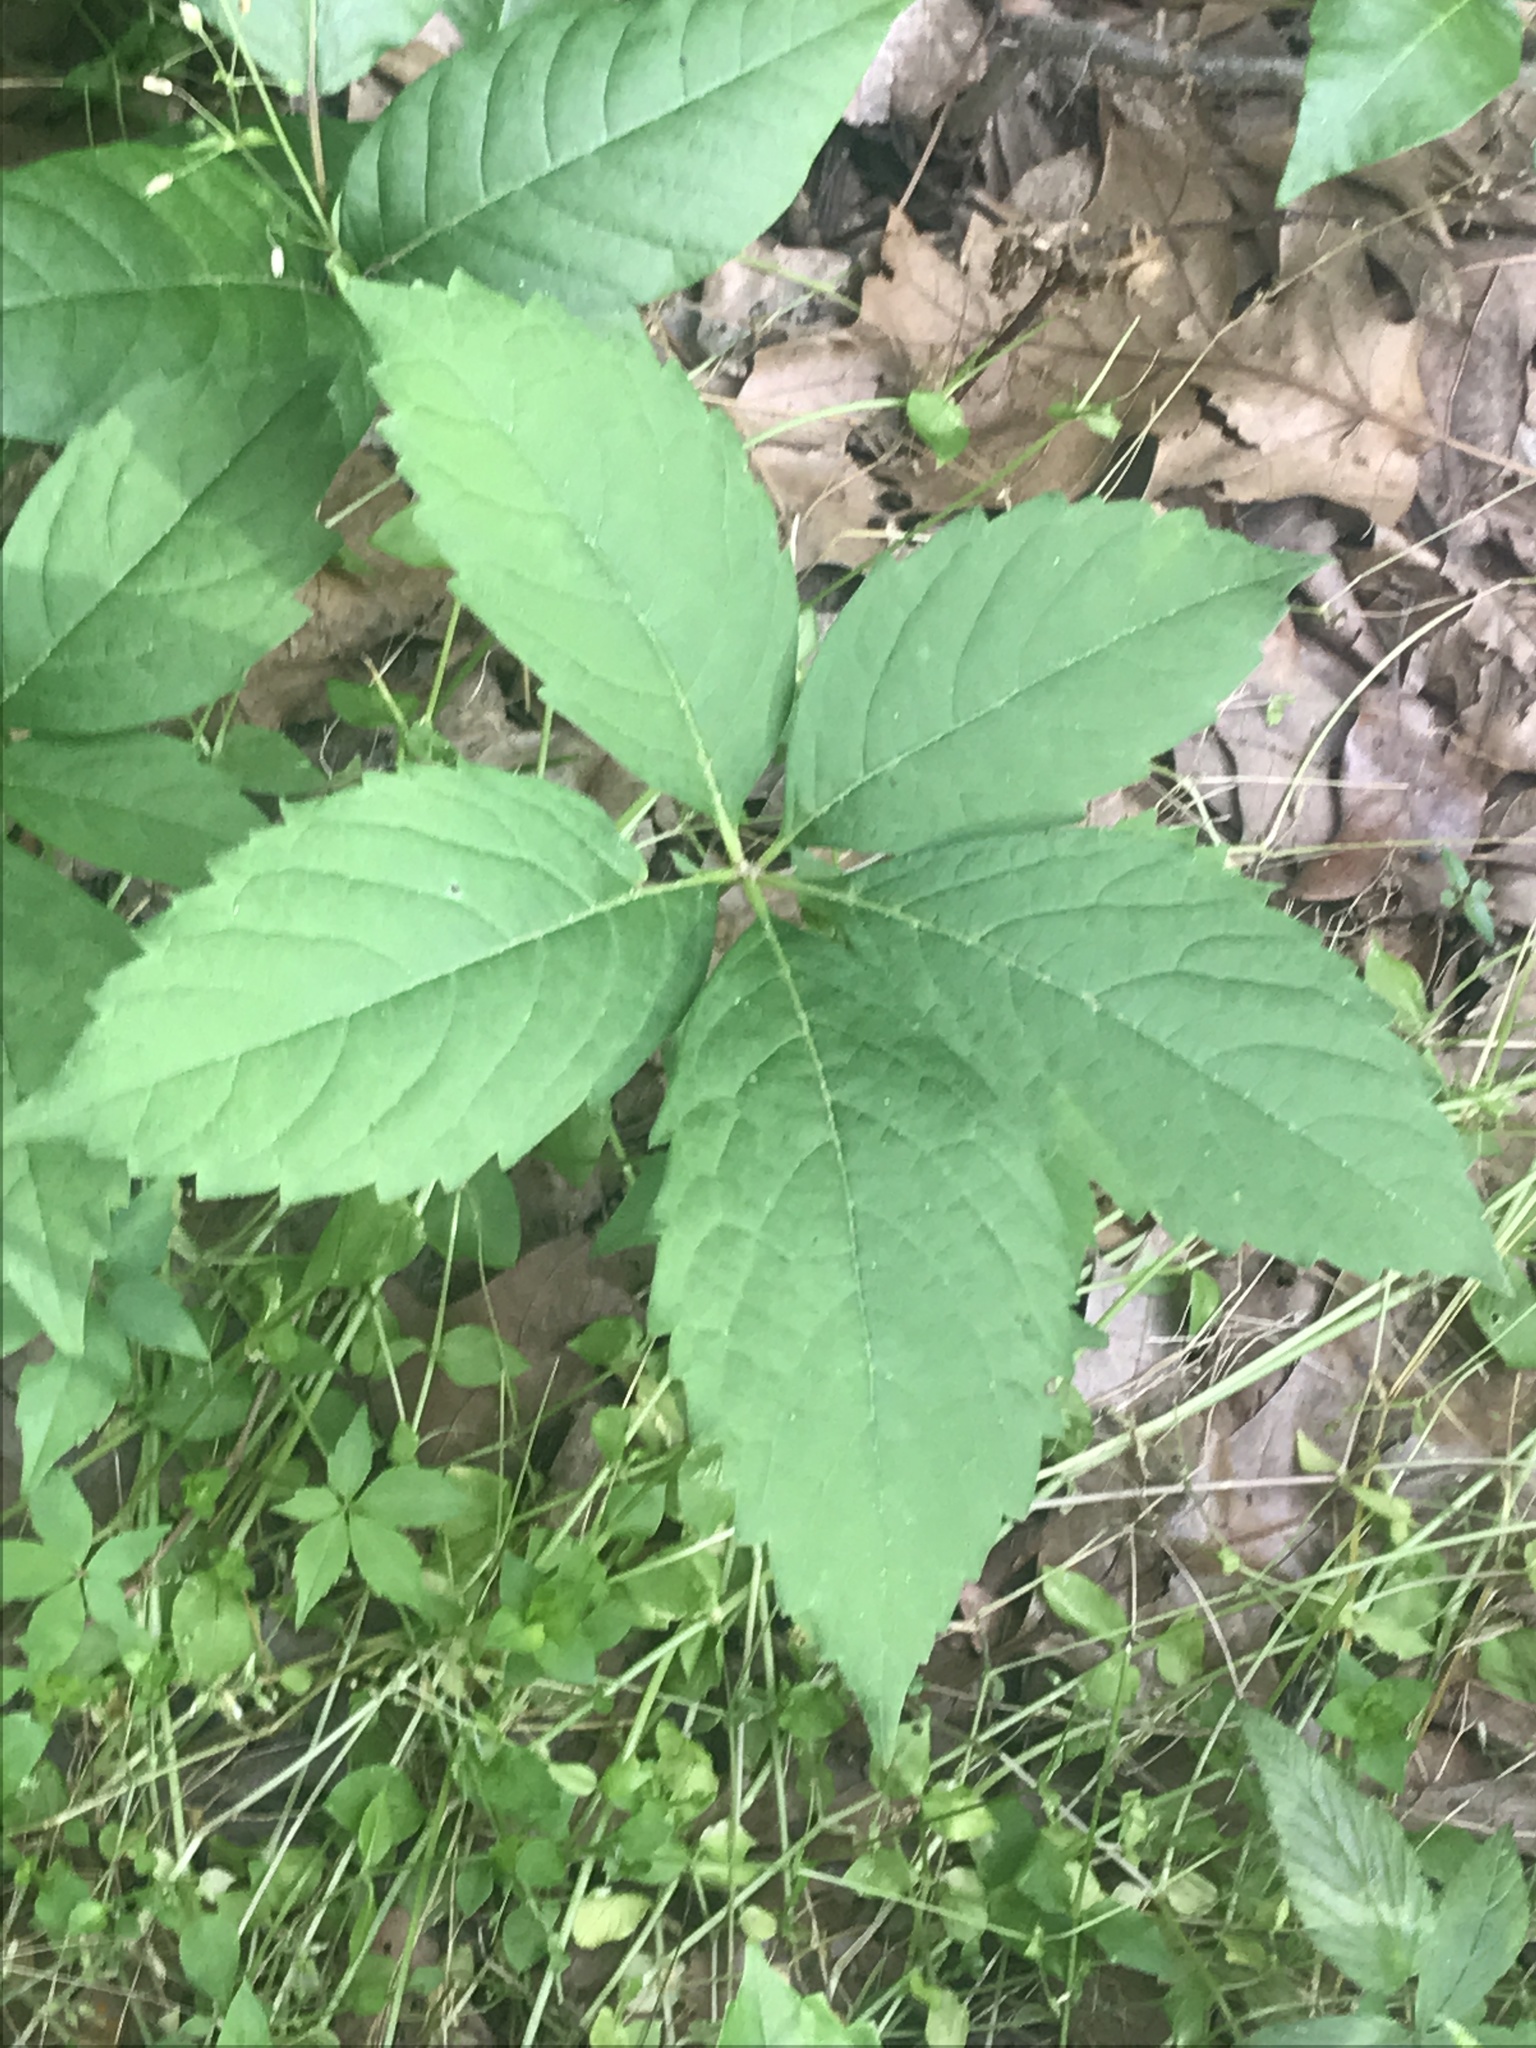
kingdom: Plantae
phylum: Tracheophyta
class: Magnoliopsida
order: Vitales
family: Vitaceae
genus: Parthenocissus
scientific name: Parthenocissus quinquefolia
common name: Virginia-creeper
